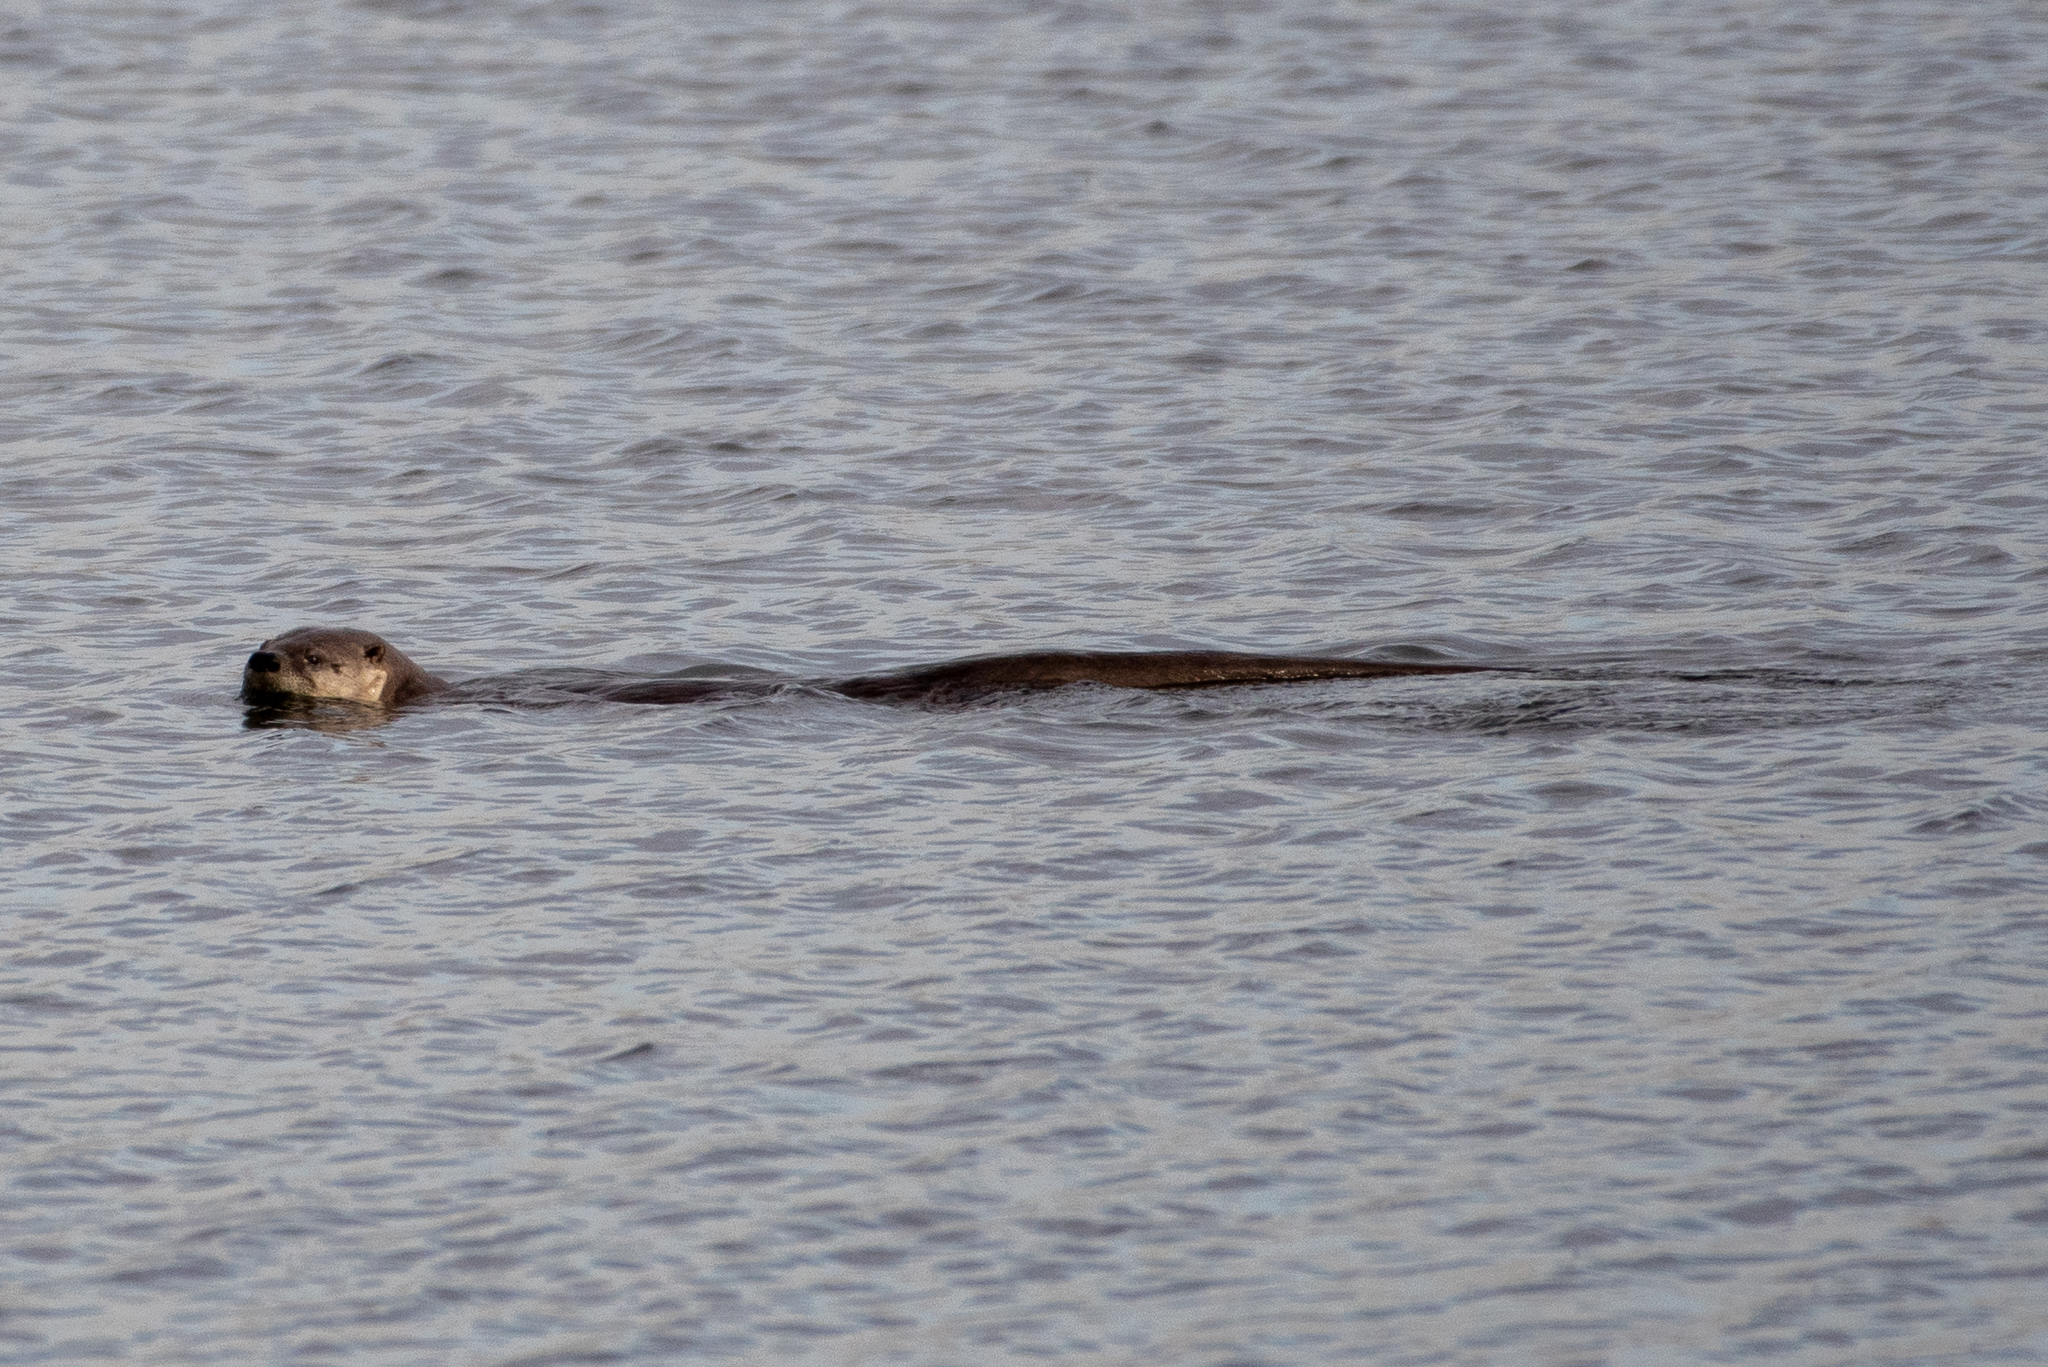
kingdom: Animalia
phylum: Chordata
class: Mammalia
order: Carnivora
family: Mustelidae
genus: Lontra
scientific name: Lontra canadensis
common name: North american river otter
